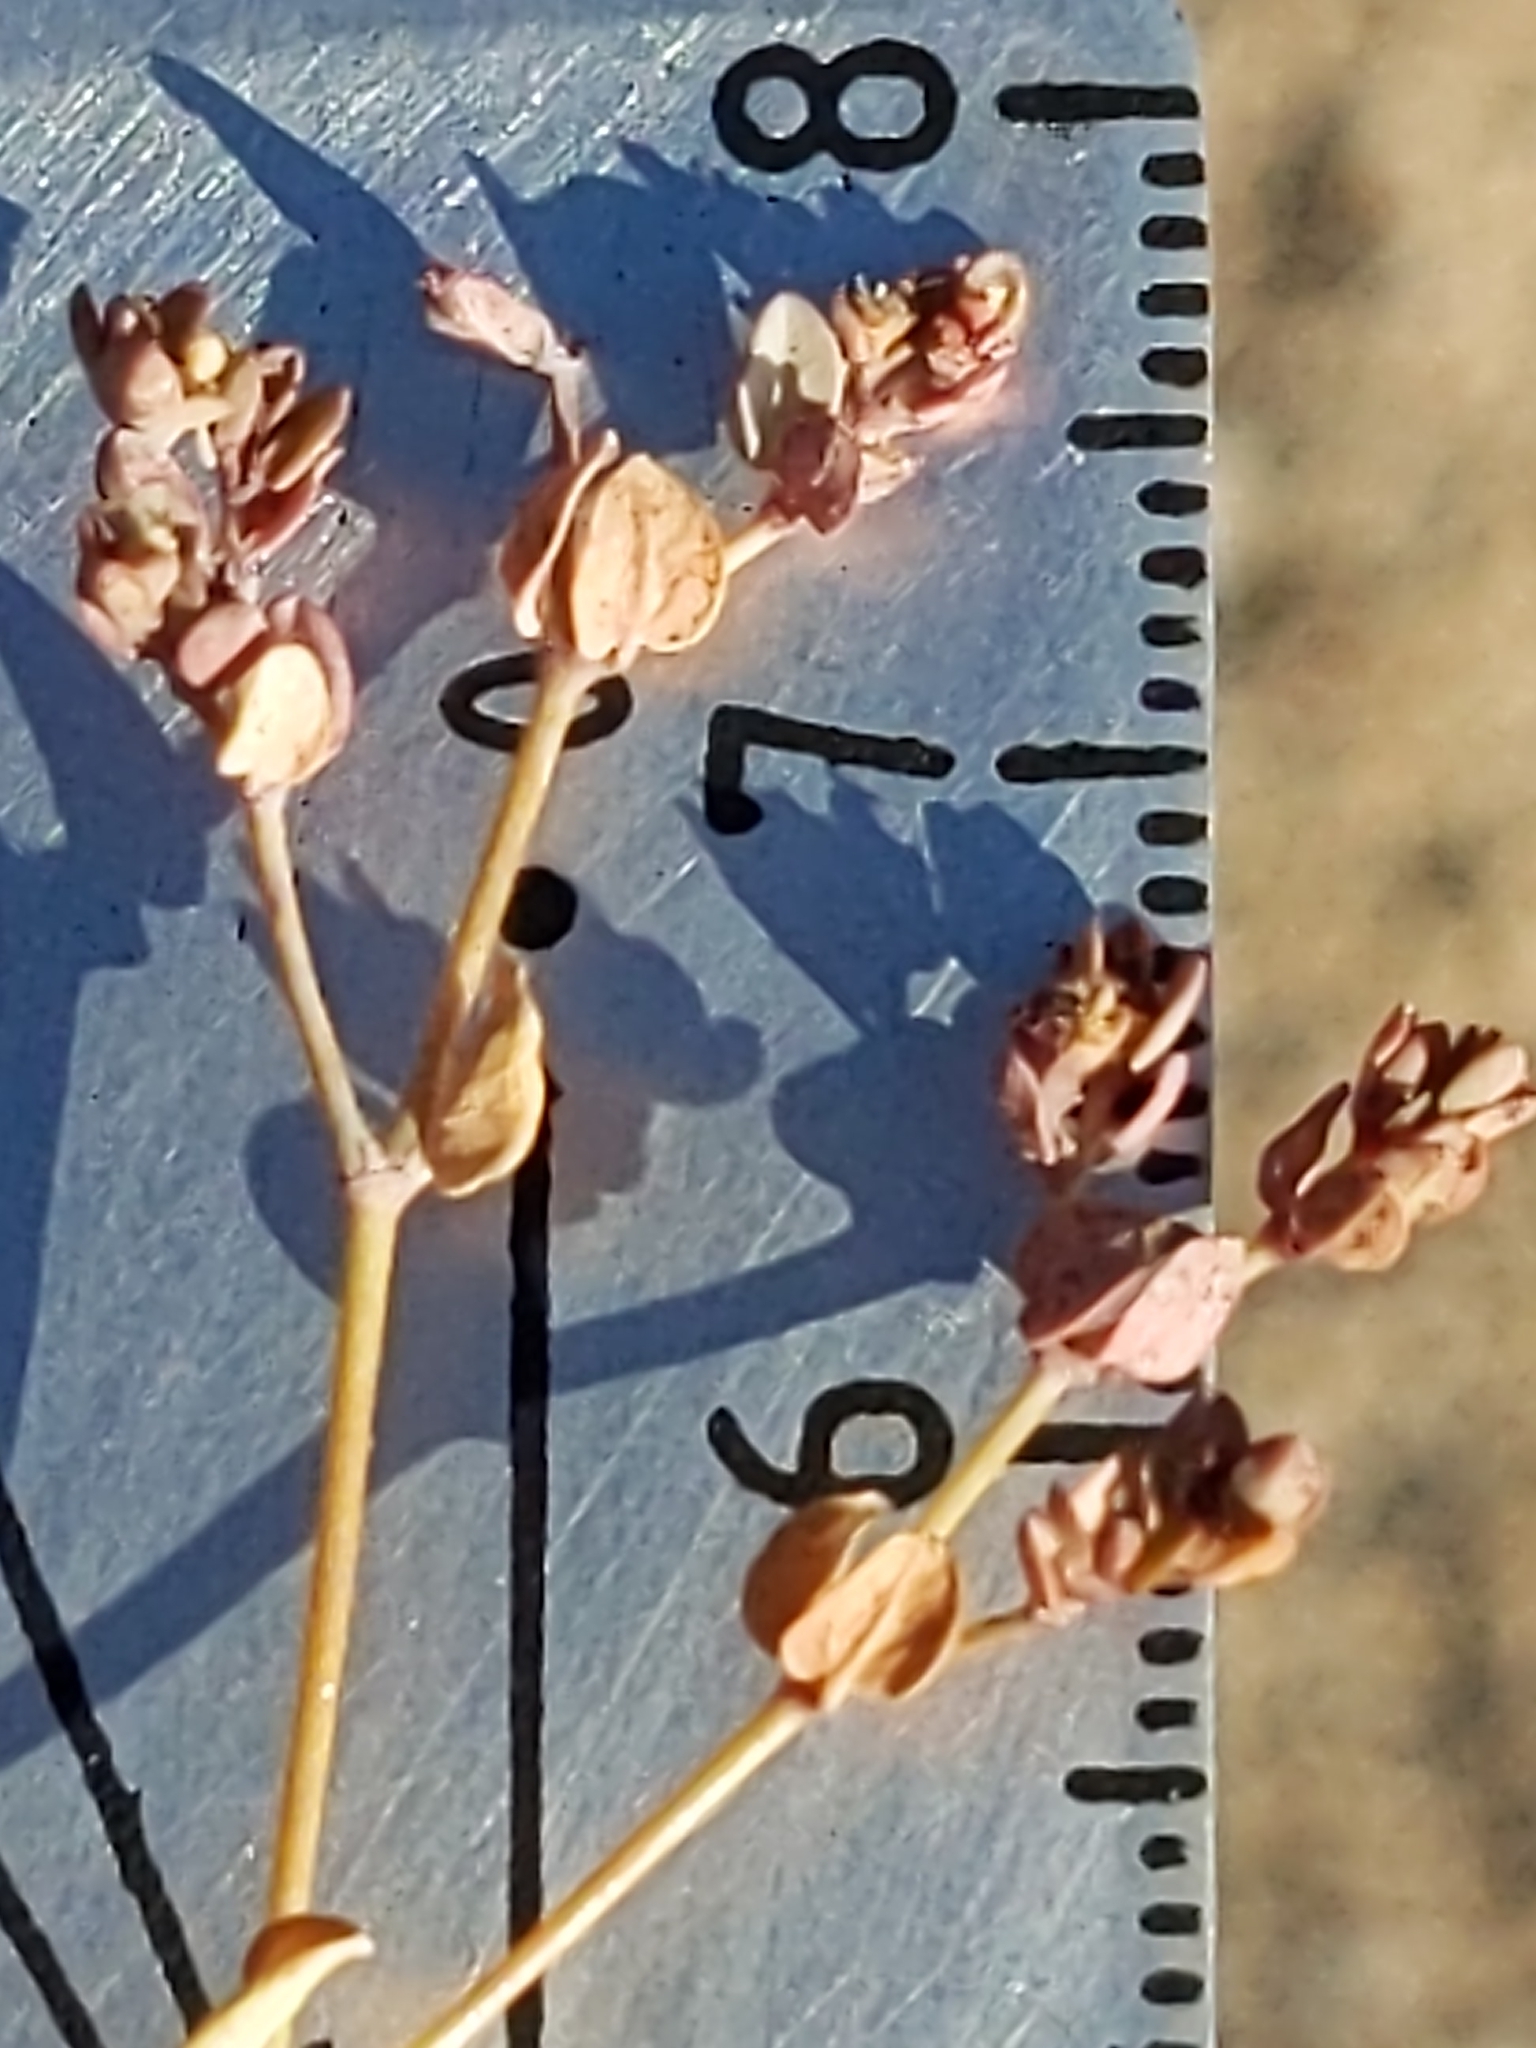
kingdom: Plantae
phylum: Tracheophyta
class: Magnoliopsida
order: Malpighiales
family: Euphorbiaceae
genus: Euphorbia
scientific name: Euphorbia polycarpa
